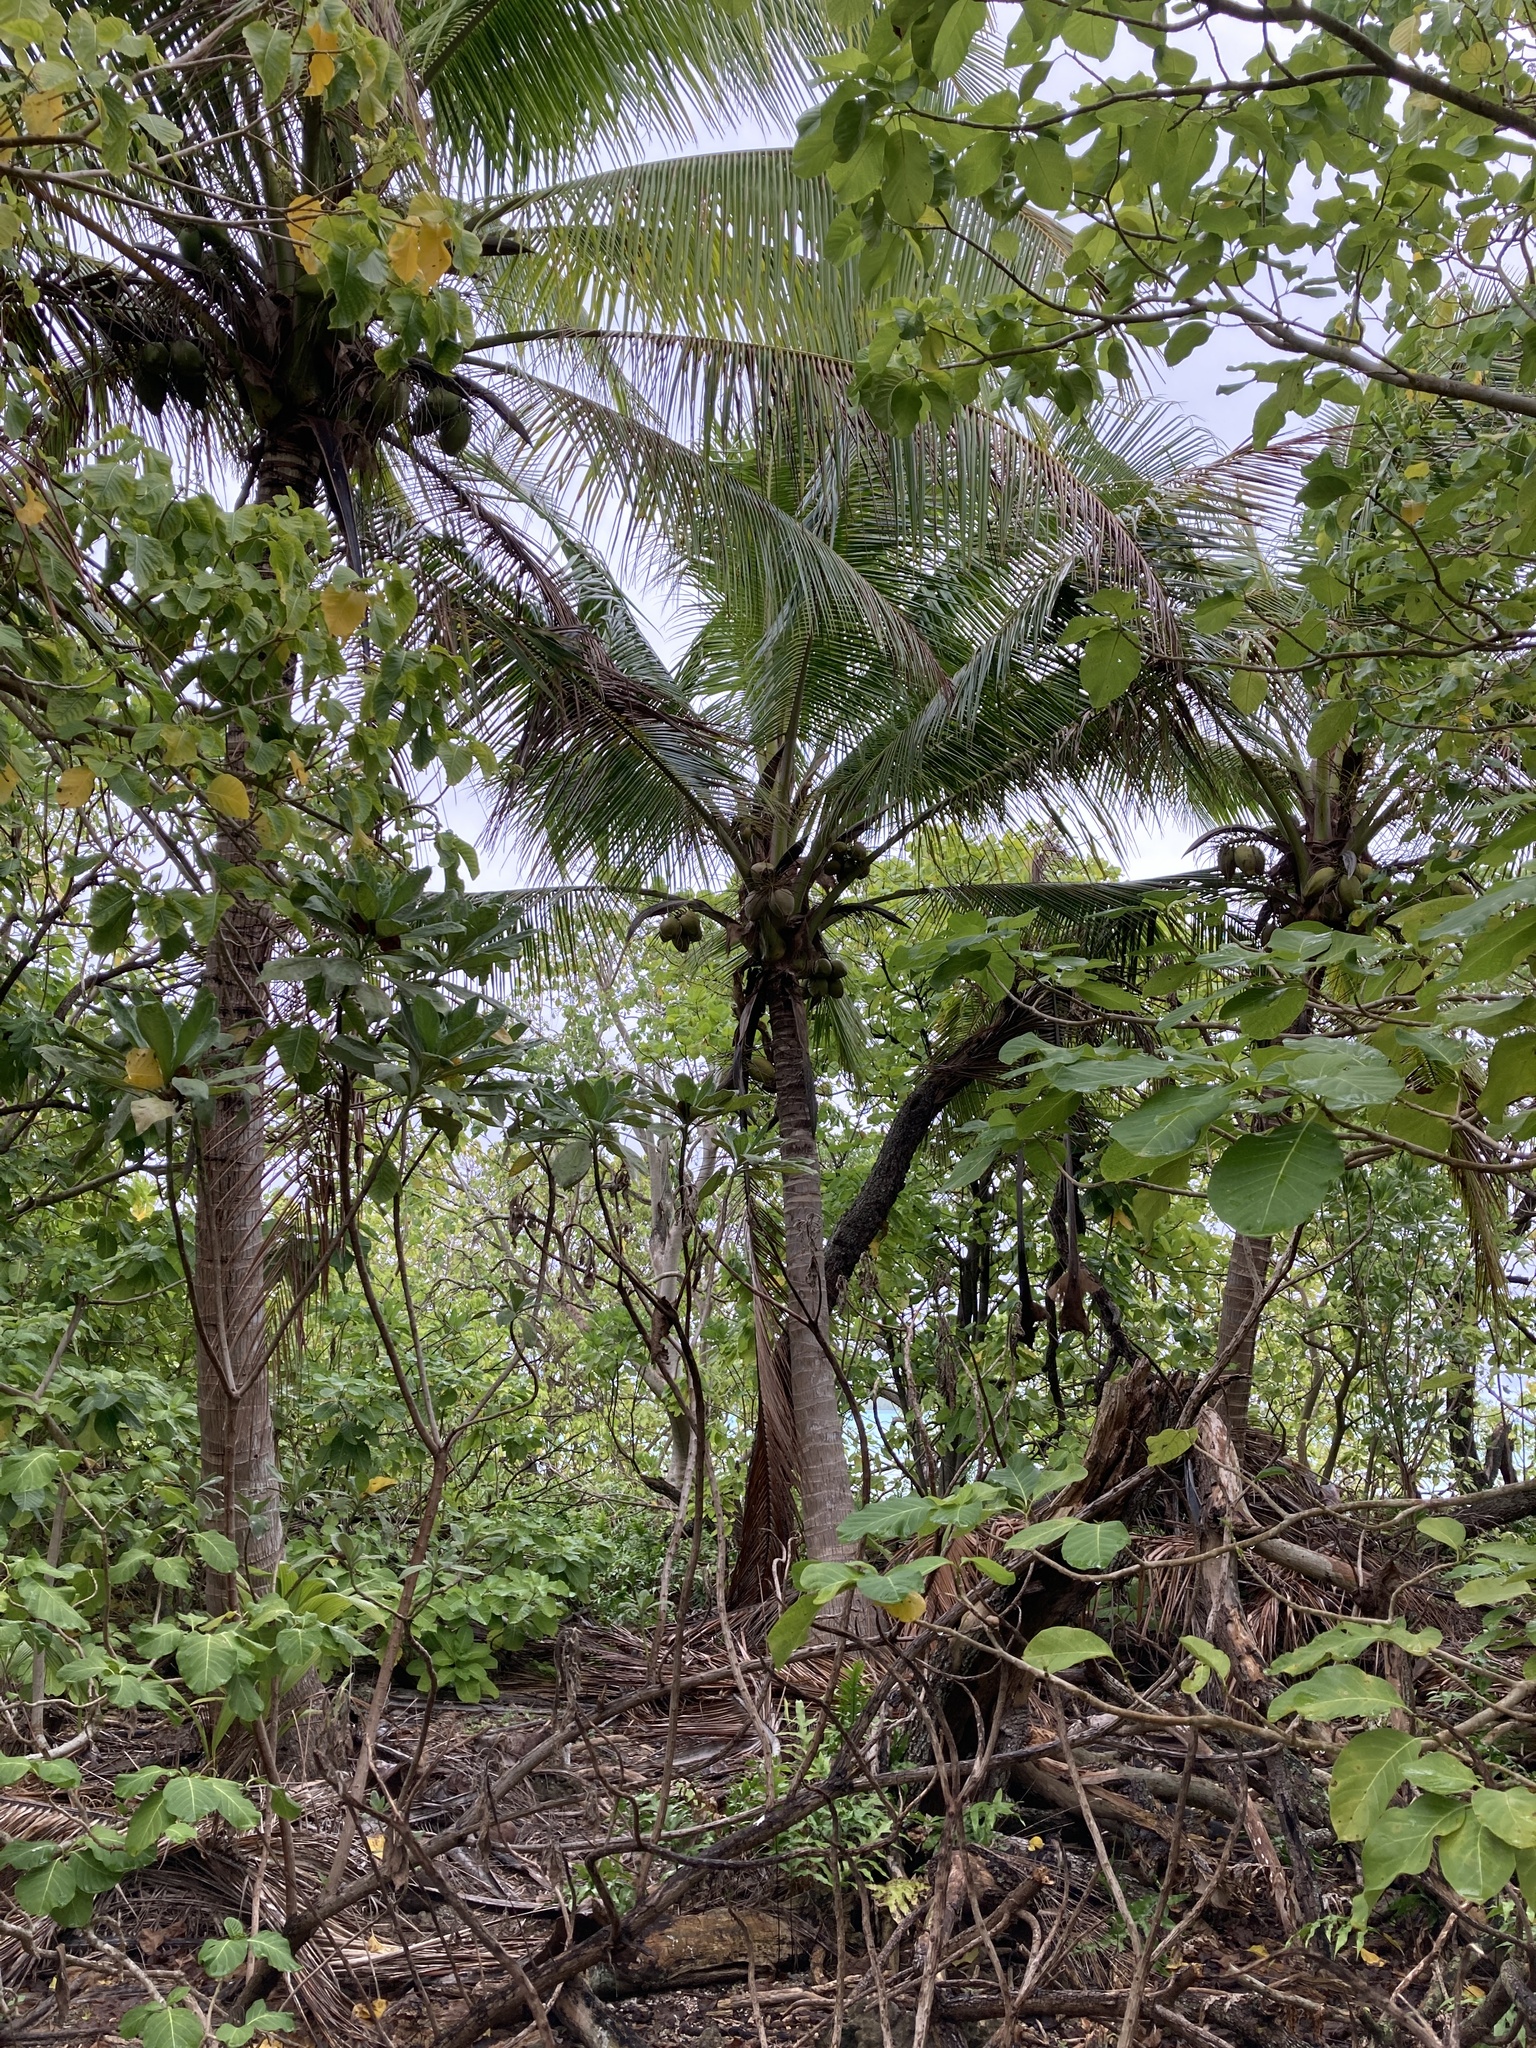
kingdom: Plantae
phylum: Tracheophyta
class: Liliopsida
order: Arecales
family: Arecaceae
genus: Cocos
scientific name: Cocos nucifera
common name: Coconut palm
